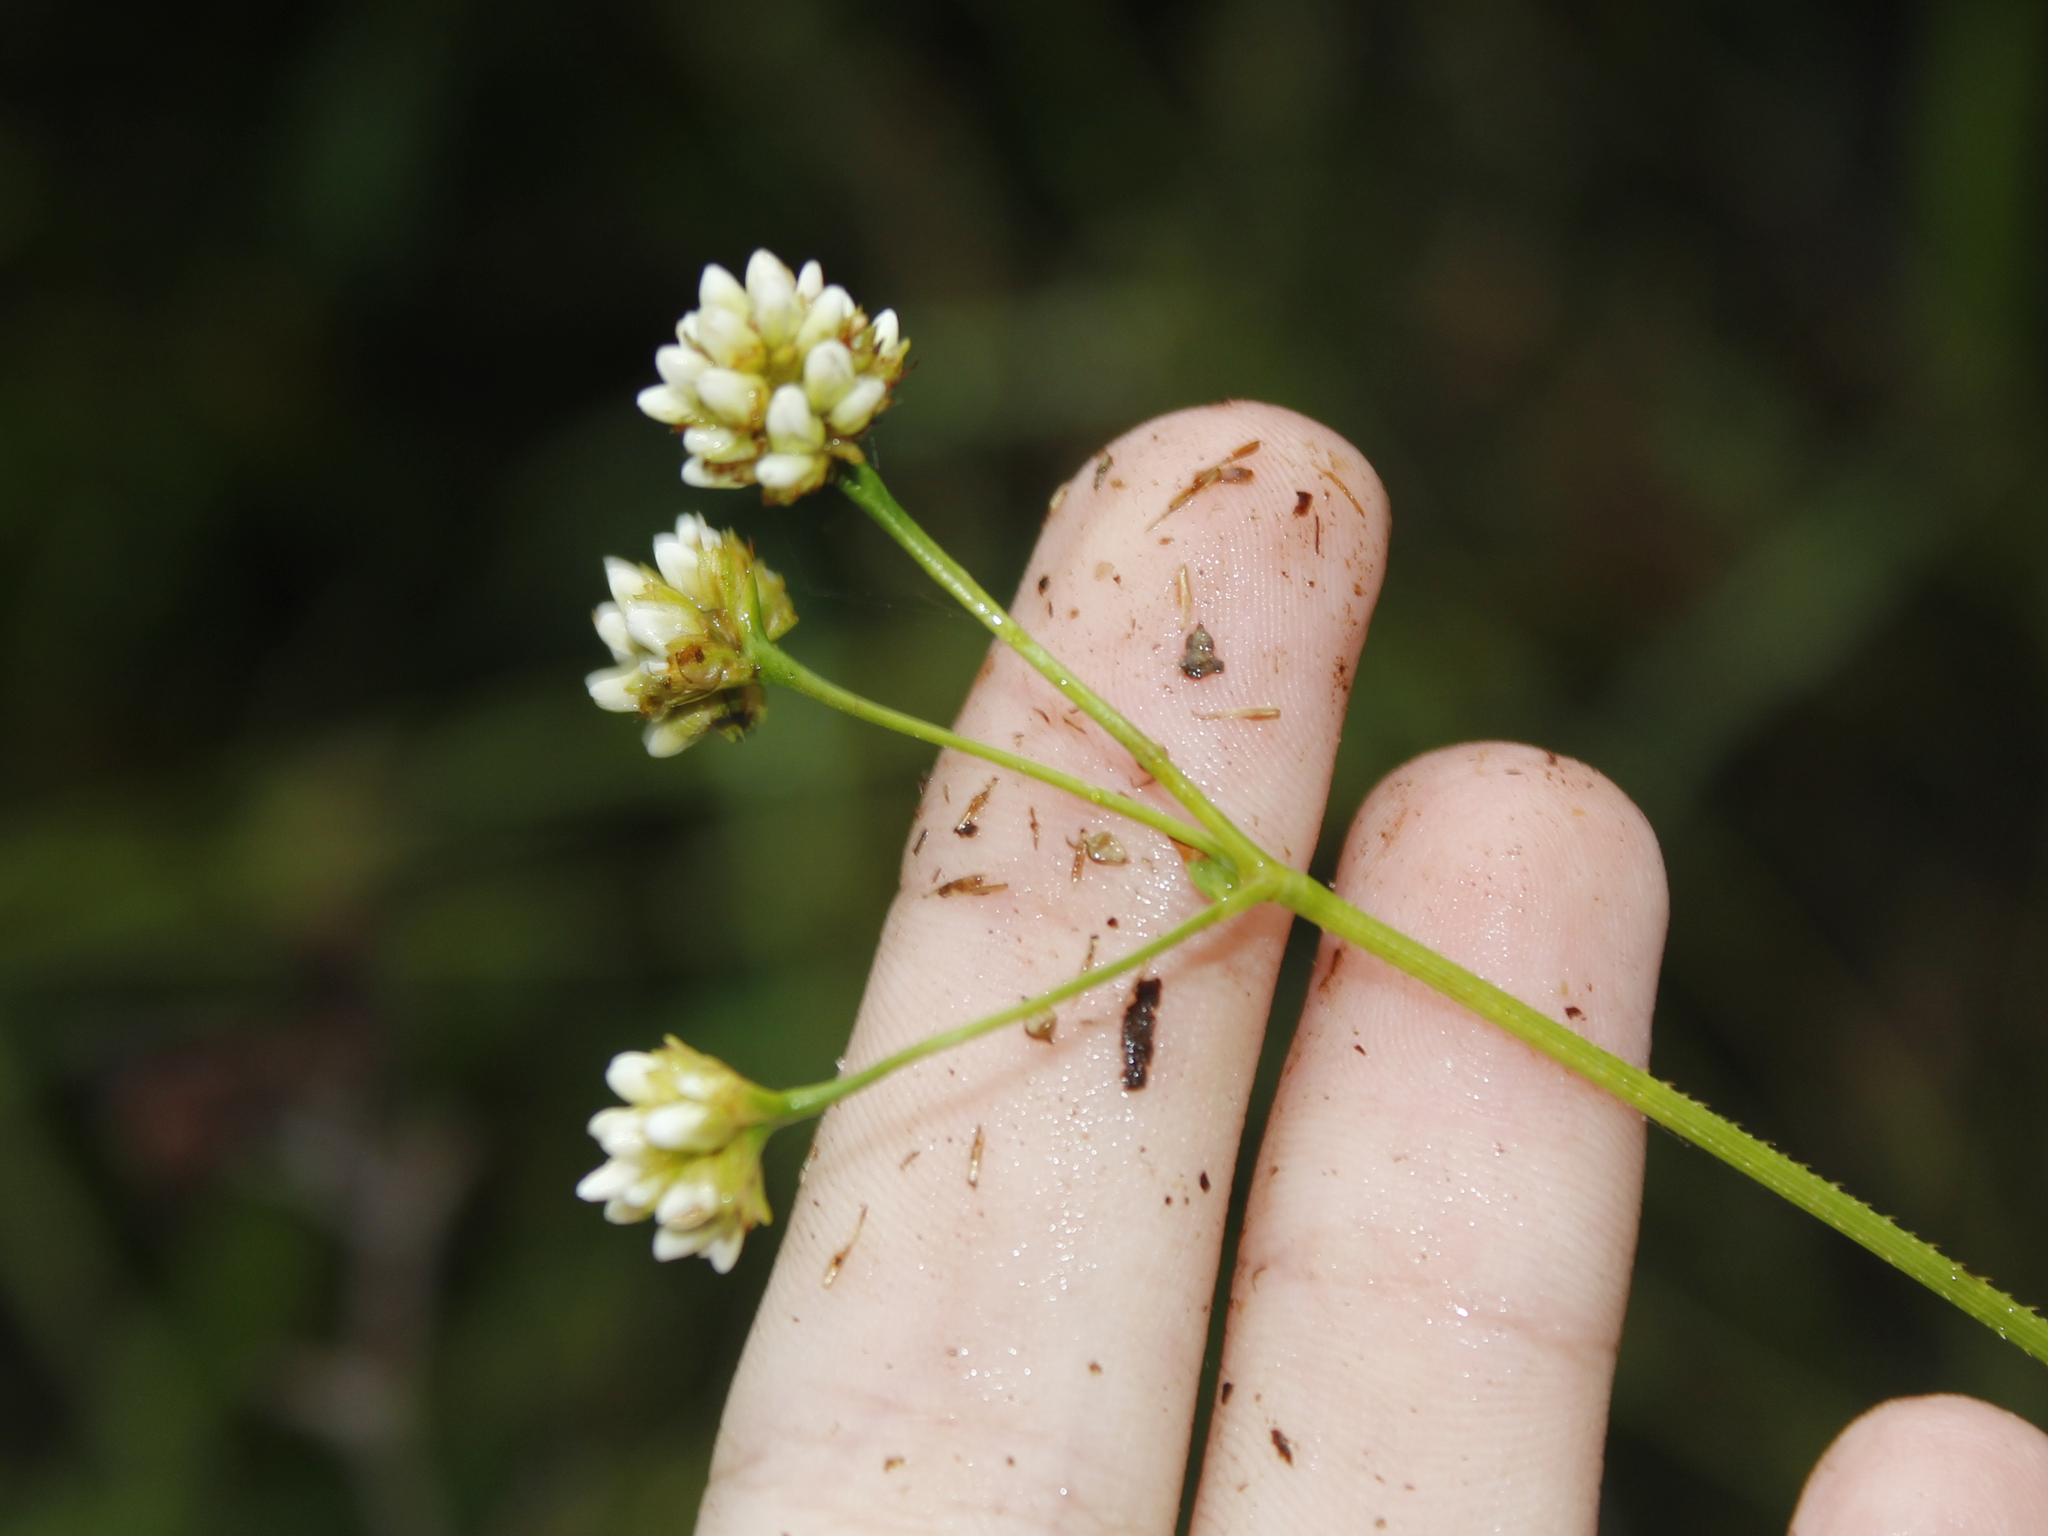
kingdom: Plantae
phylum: Tracheophyta
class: Magnoliopsida
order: Caryophyllales
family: Polygonaceae
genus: Persicaria
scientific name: Persicaria sagittata
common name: American tearthumb
